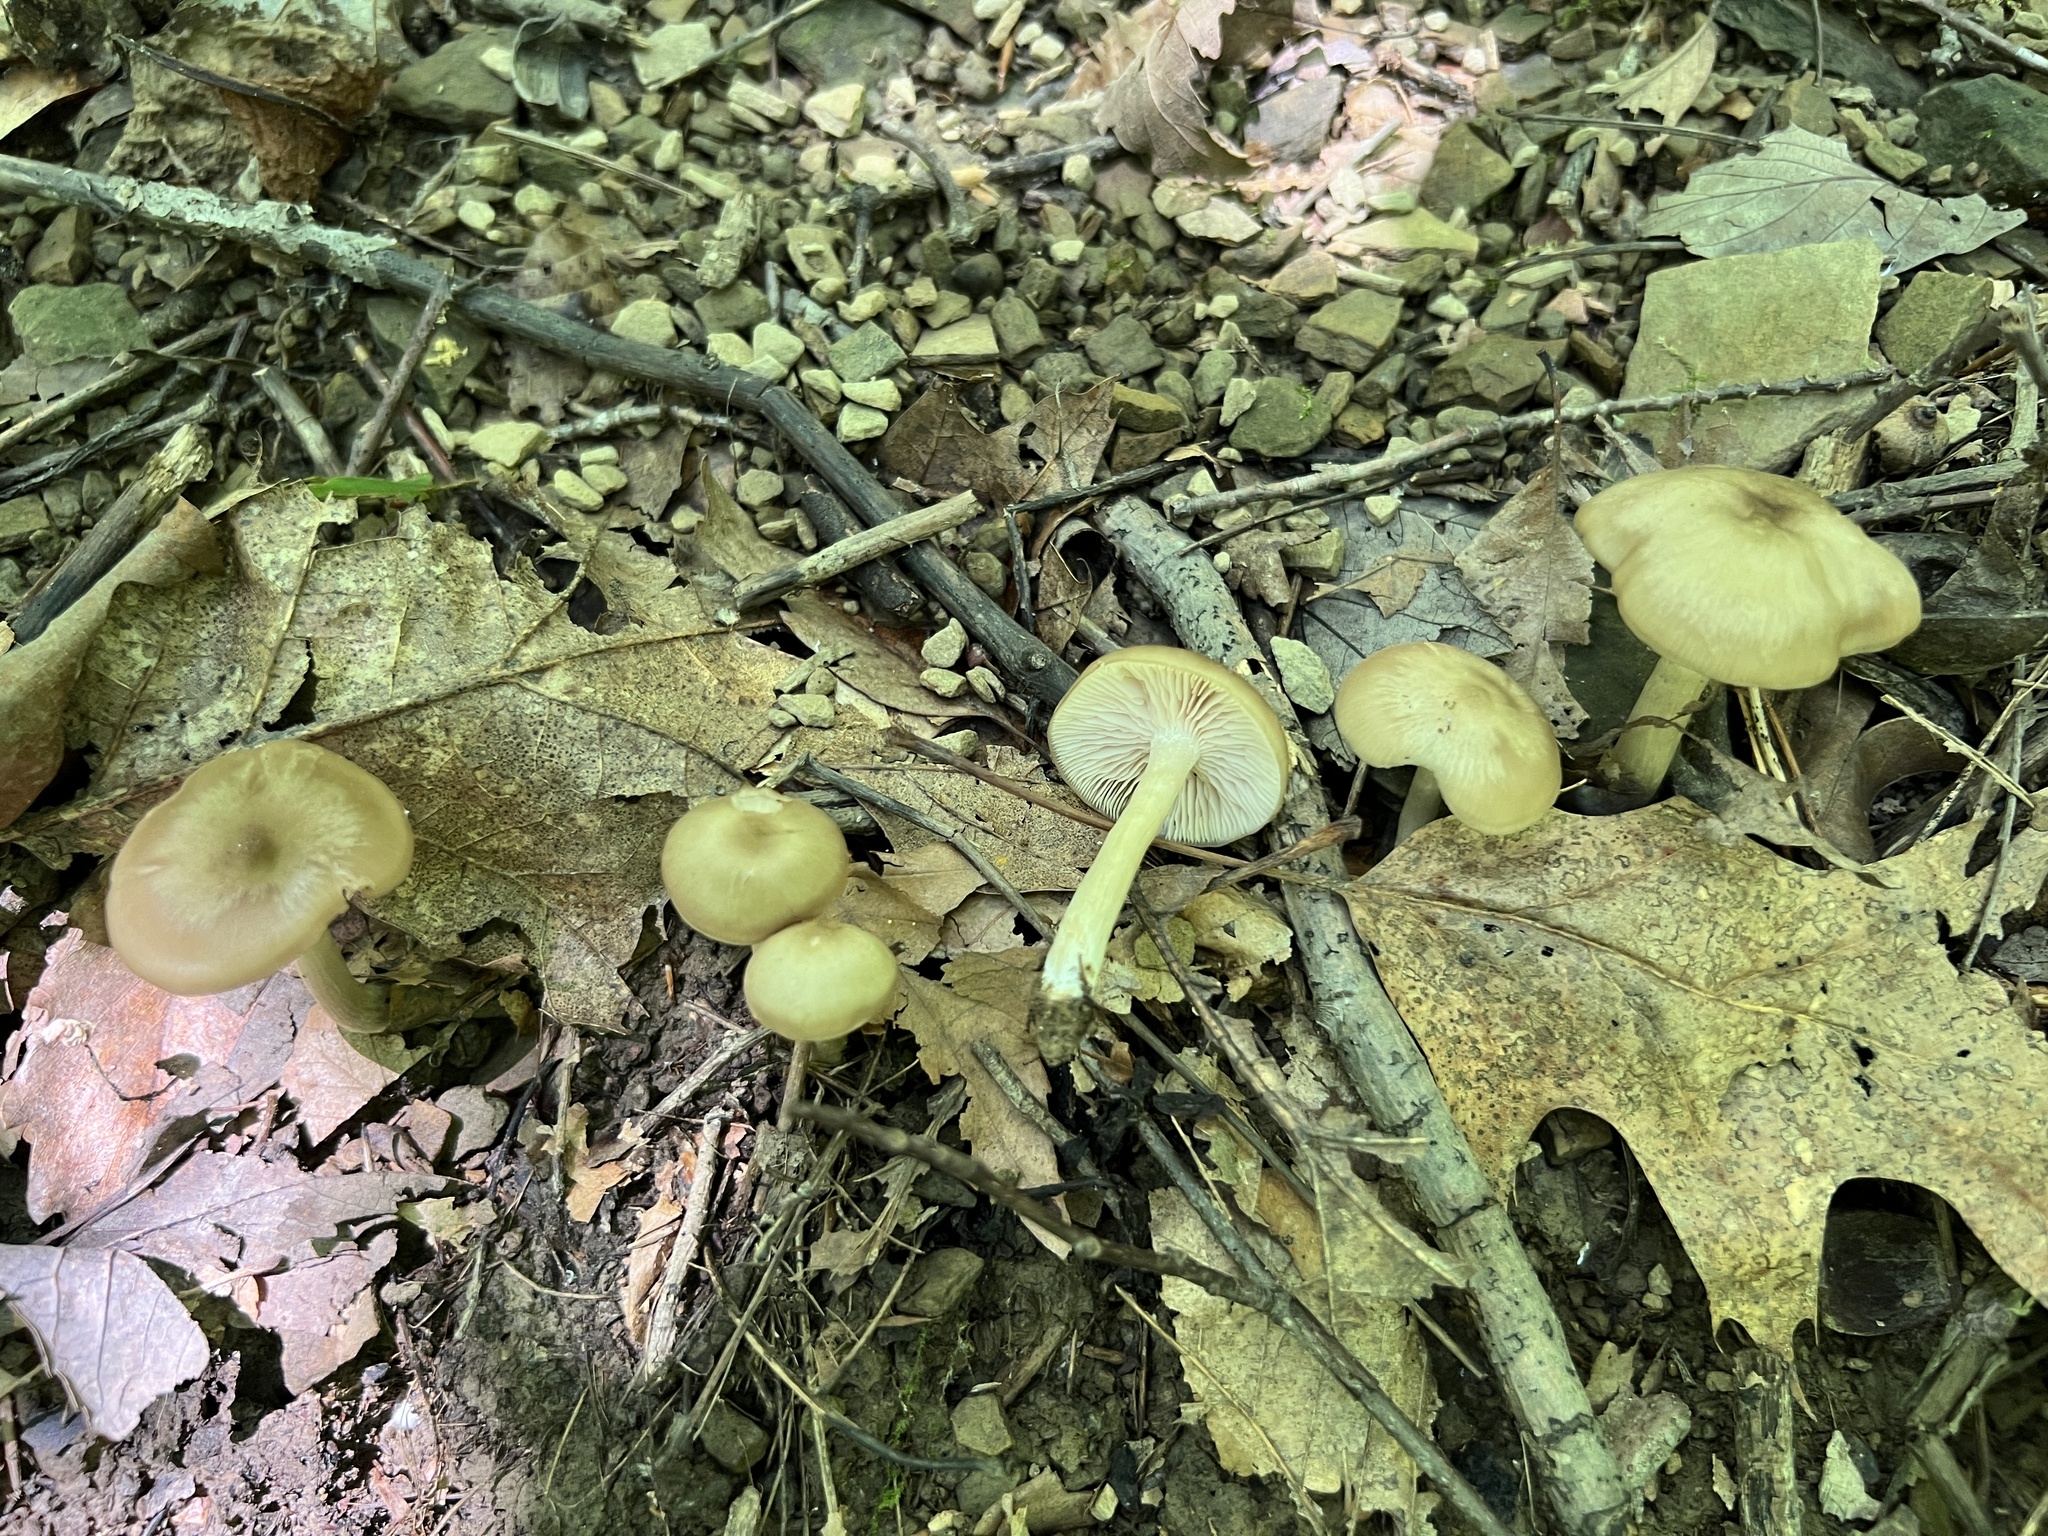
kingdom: Fungi
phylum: Basidiomycota
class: Agaricomycetes
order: Agaricales
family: Entolomataceae
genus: Entoloma
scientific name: Entoloma carolinianum
